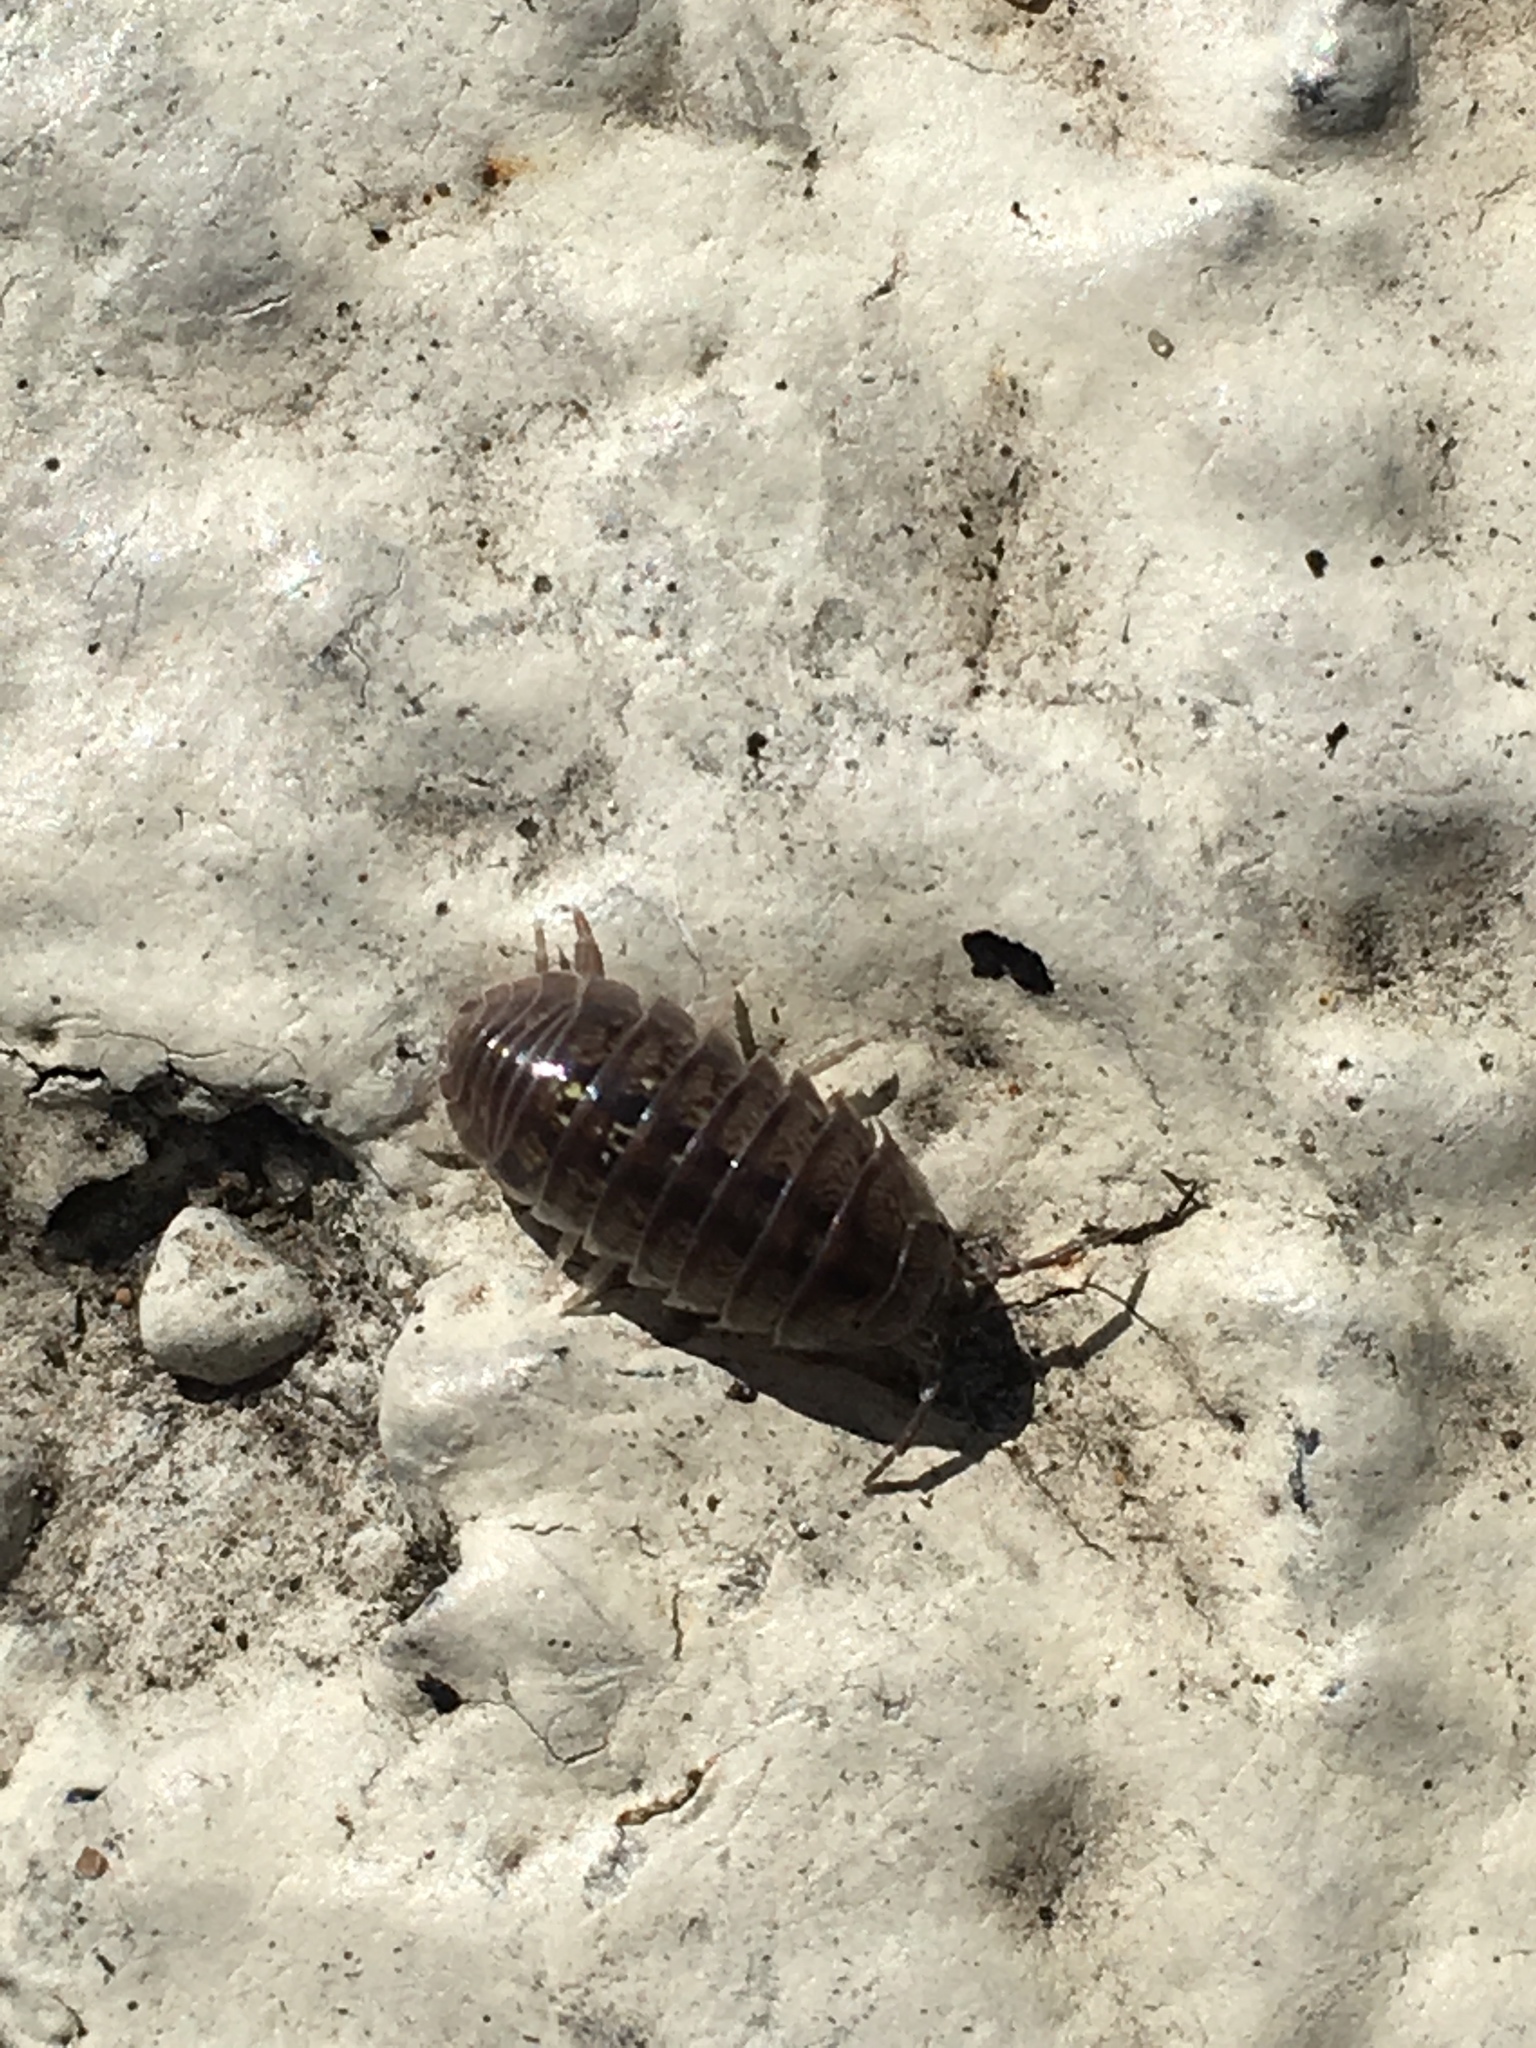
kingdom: Animalia
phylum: Arthropoda
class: Malacostraca
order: Isopoda
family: Armadillidiidae
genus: Armadillidium
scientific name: Armadillidium vulgare
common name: Common pill woodlouse
